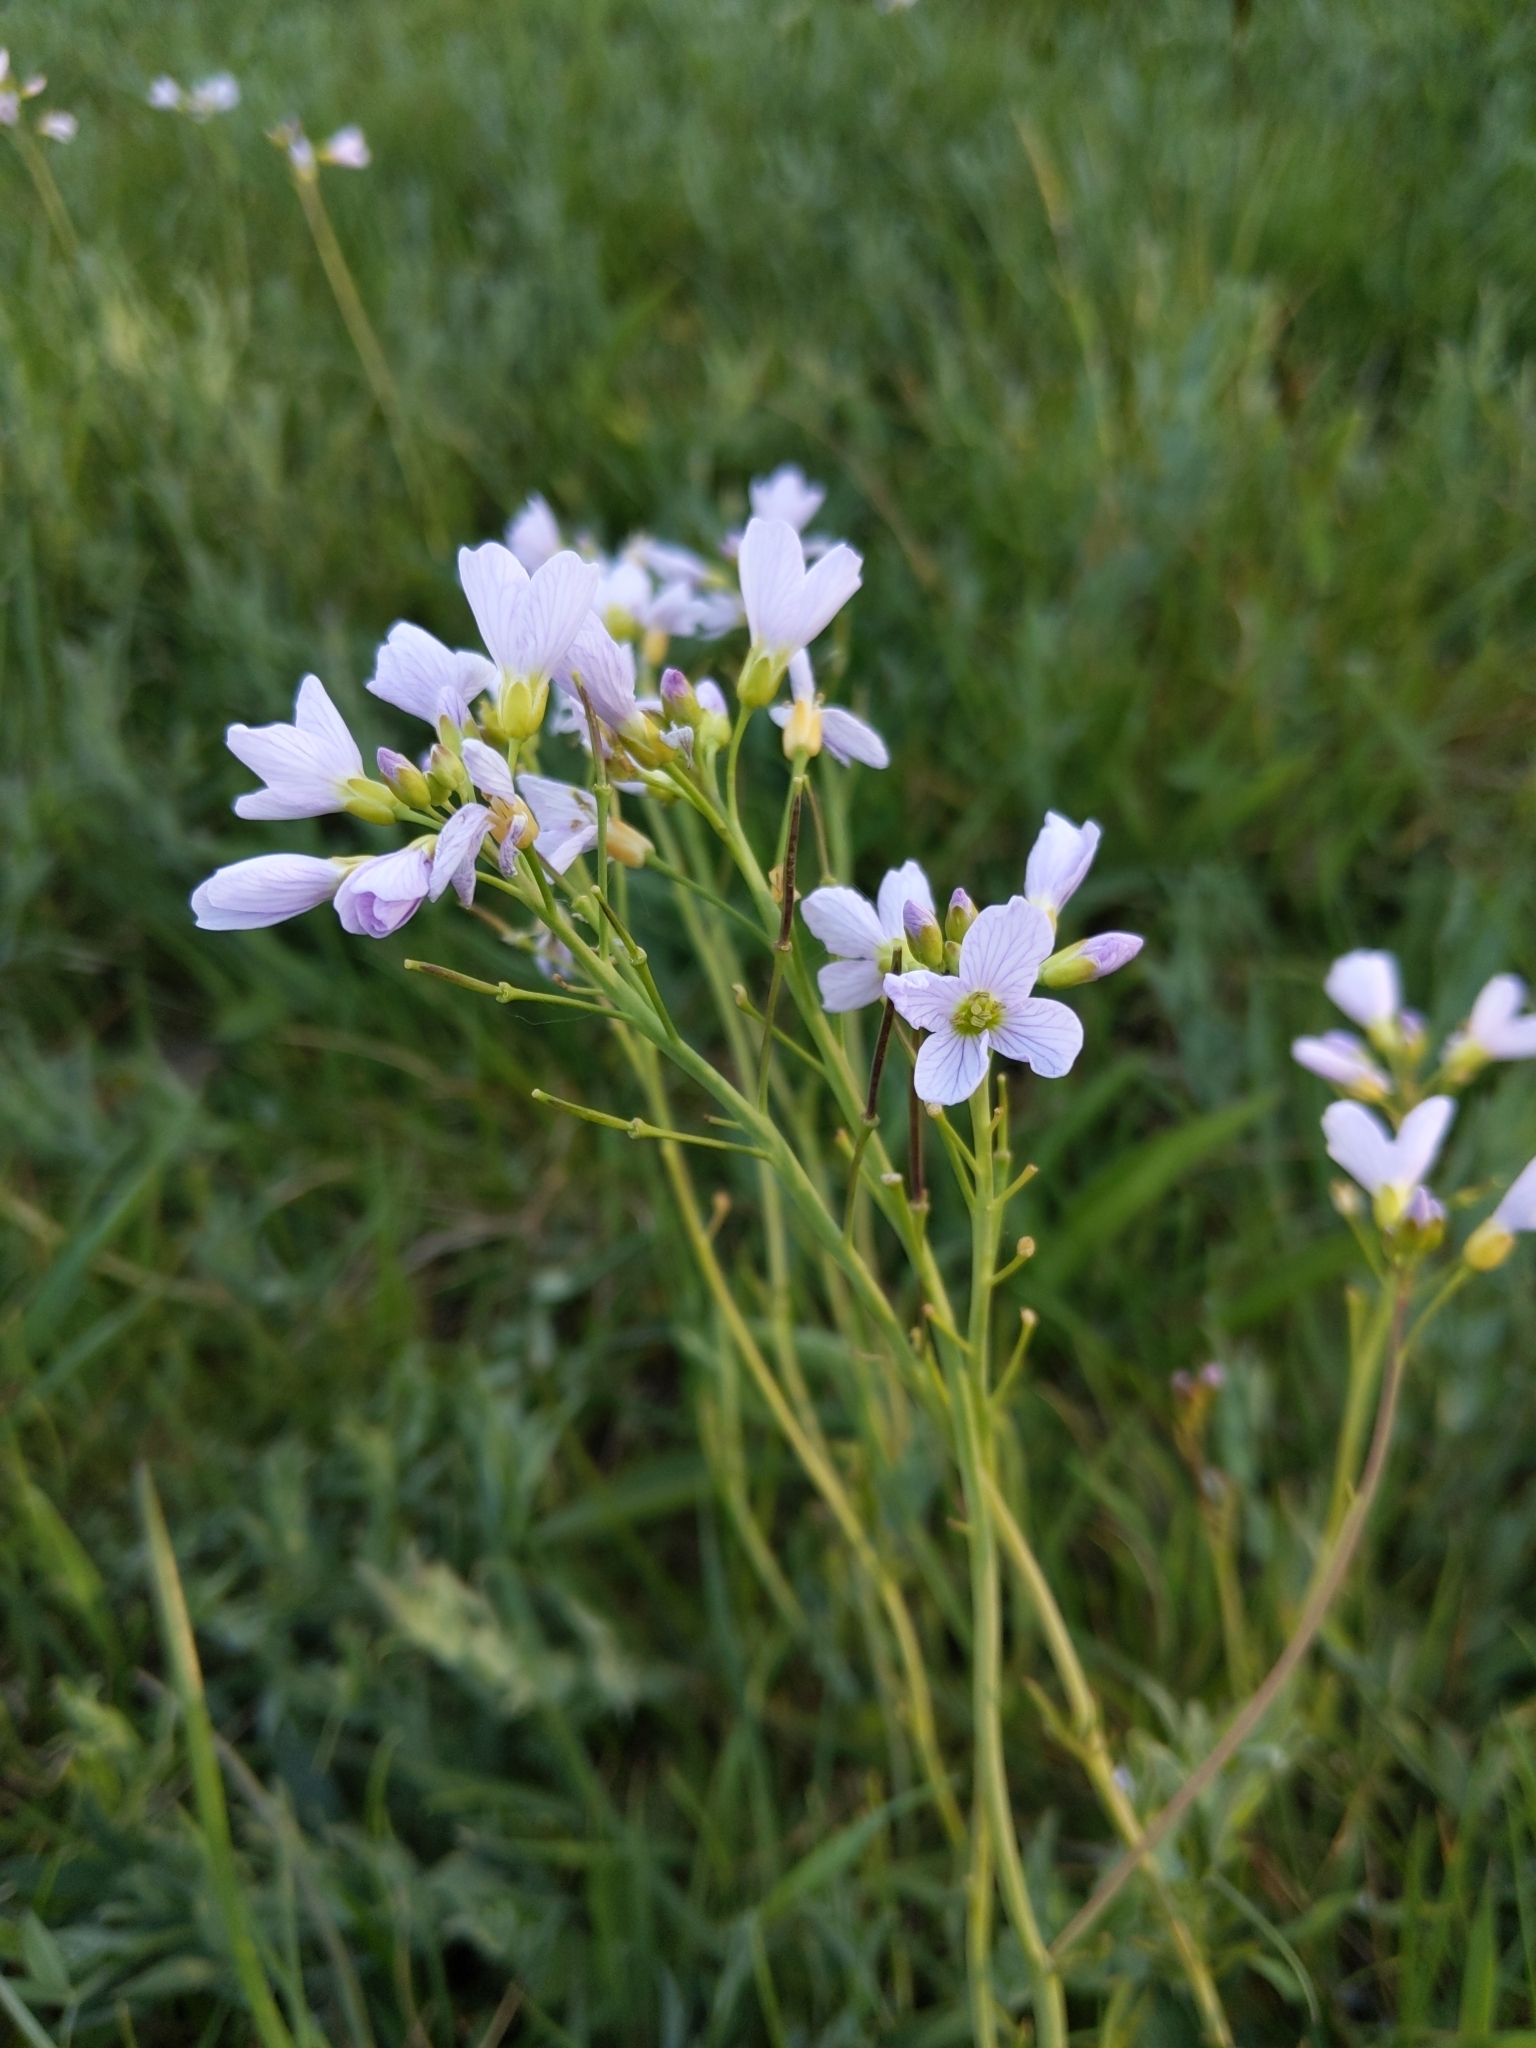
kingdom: Plantae
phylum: Tracheophyta
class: Magnoliopsida
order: Brassicales
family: Brassicaceae
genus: Cardamine
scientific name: Cardamine pratensis
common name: Cuckoo flower
